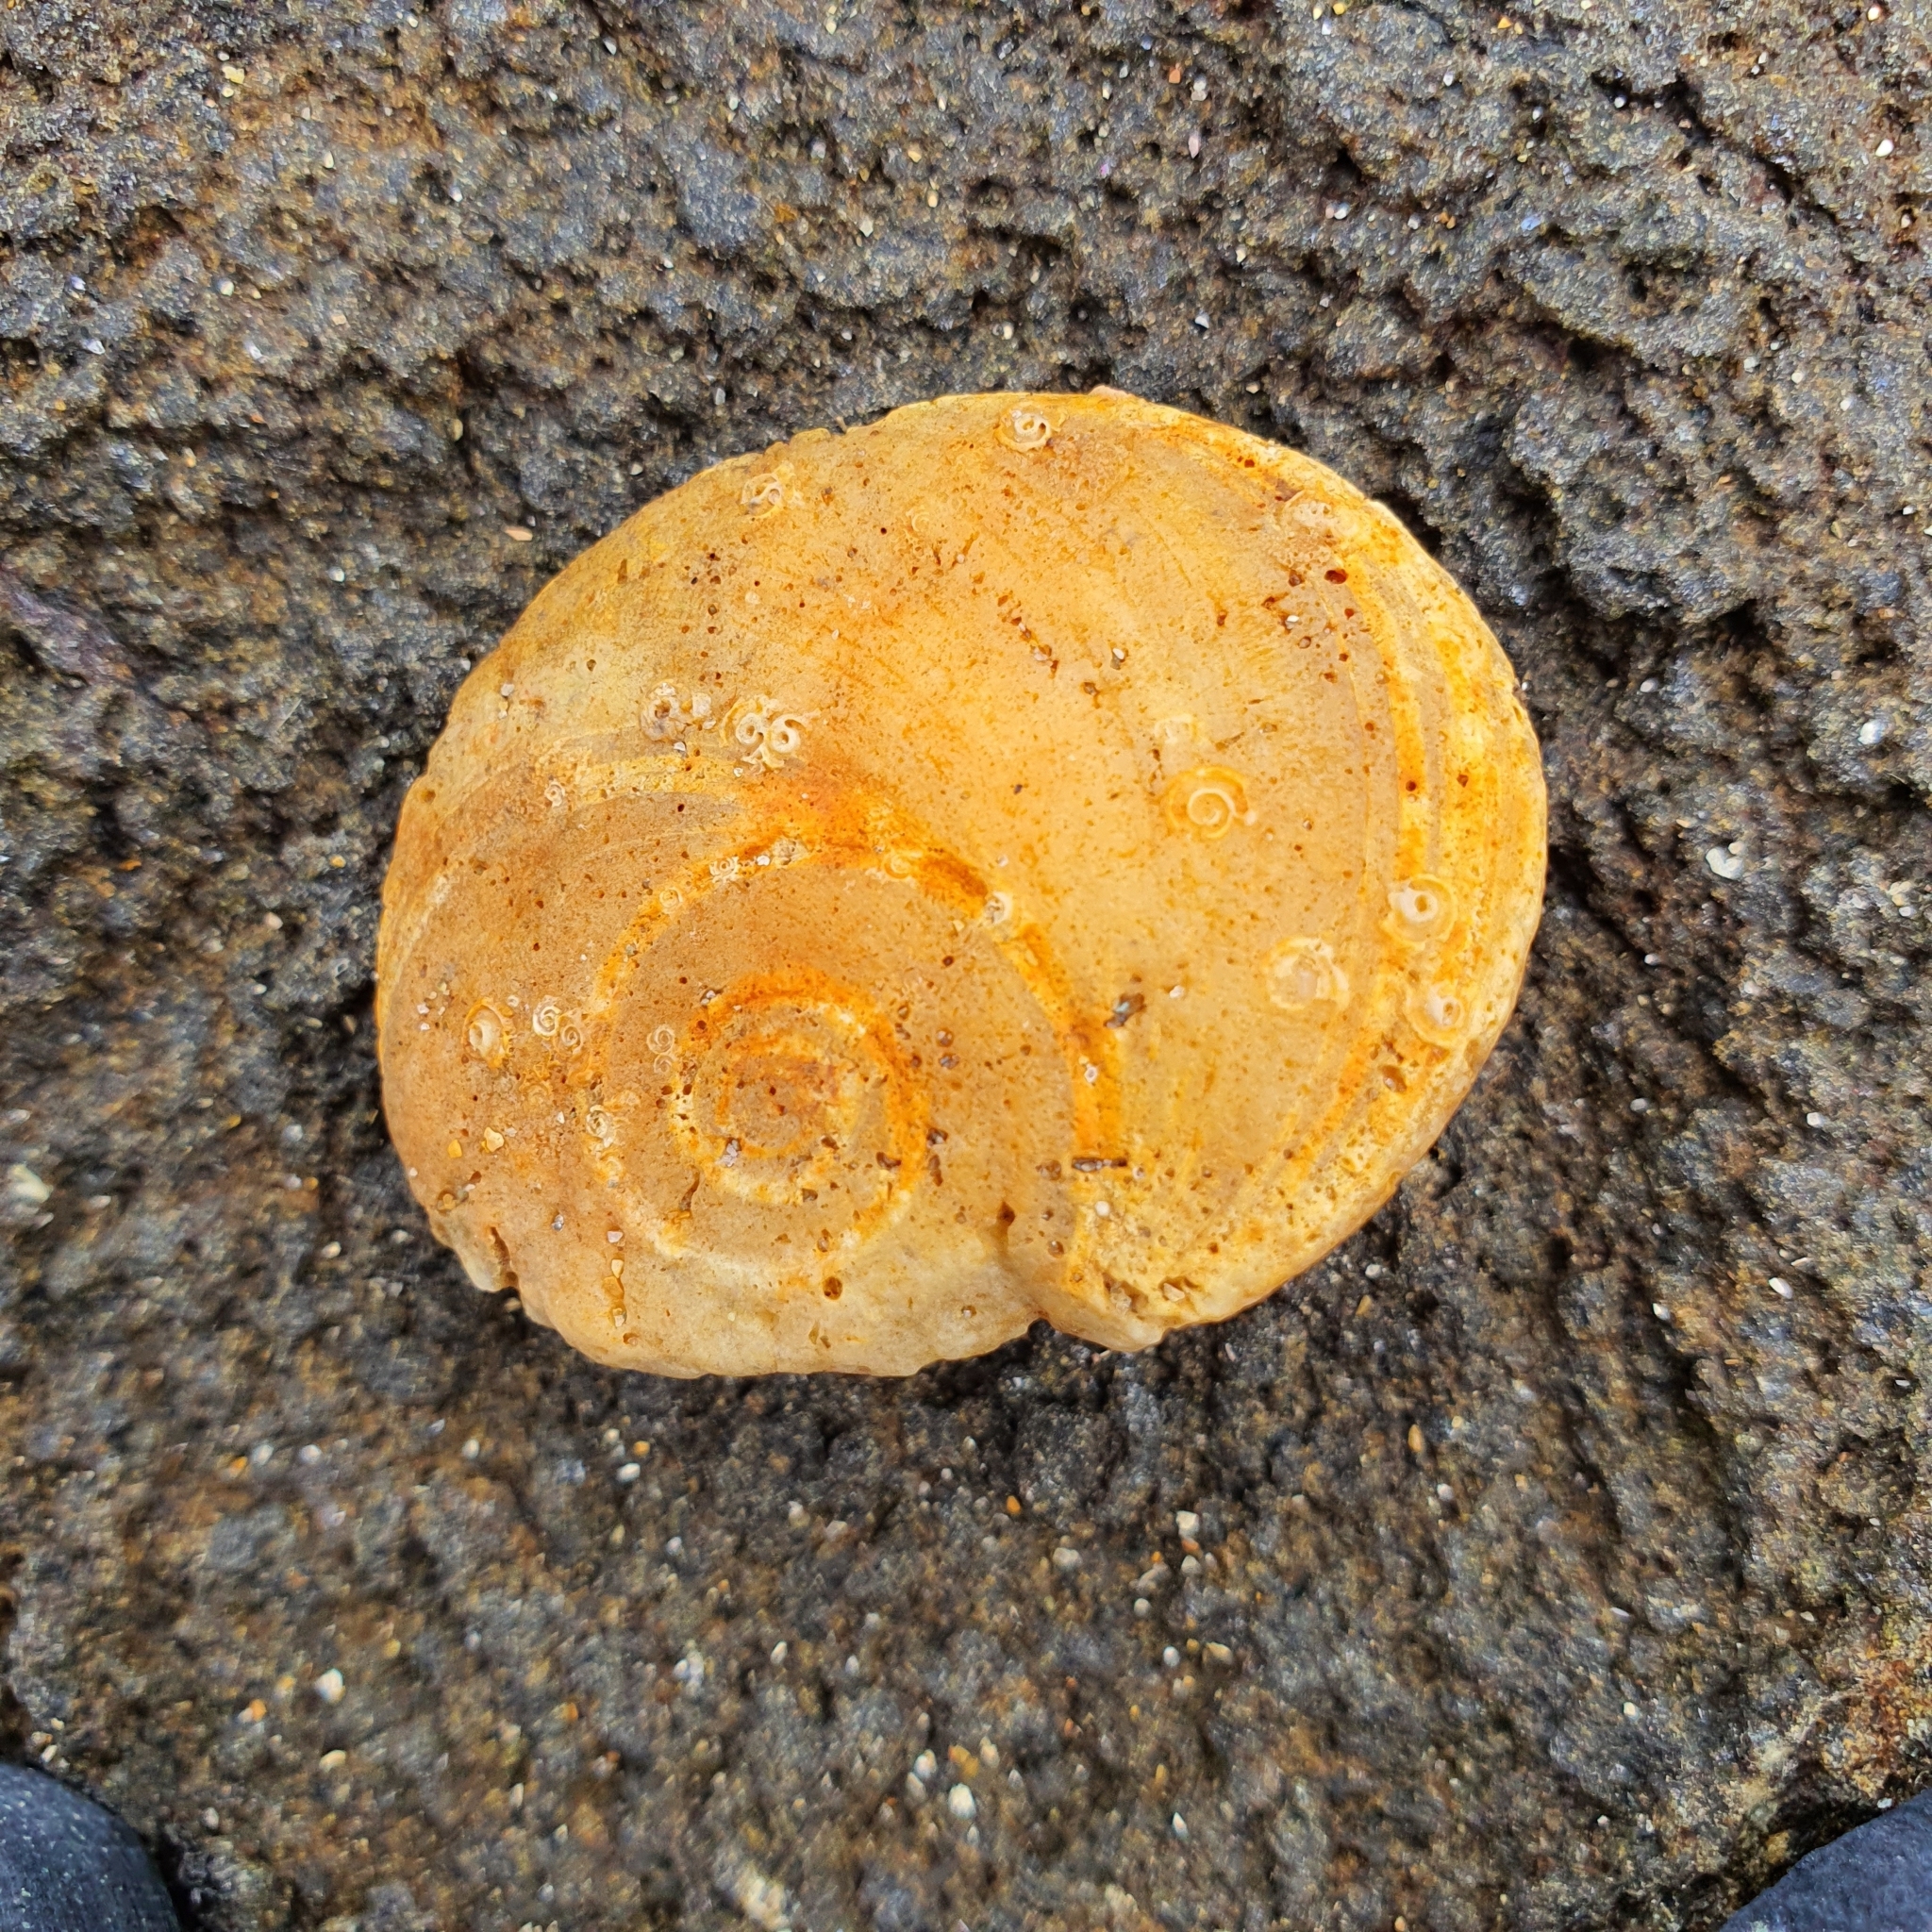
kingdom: Animalia
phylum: Mollusca
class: Gastropoda
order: Trochida
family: Turbinidae
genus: Lunella
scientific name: Lunella torquata
